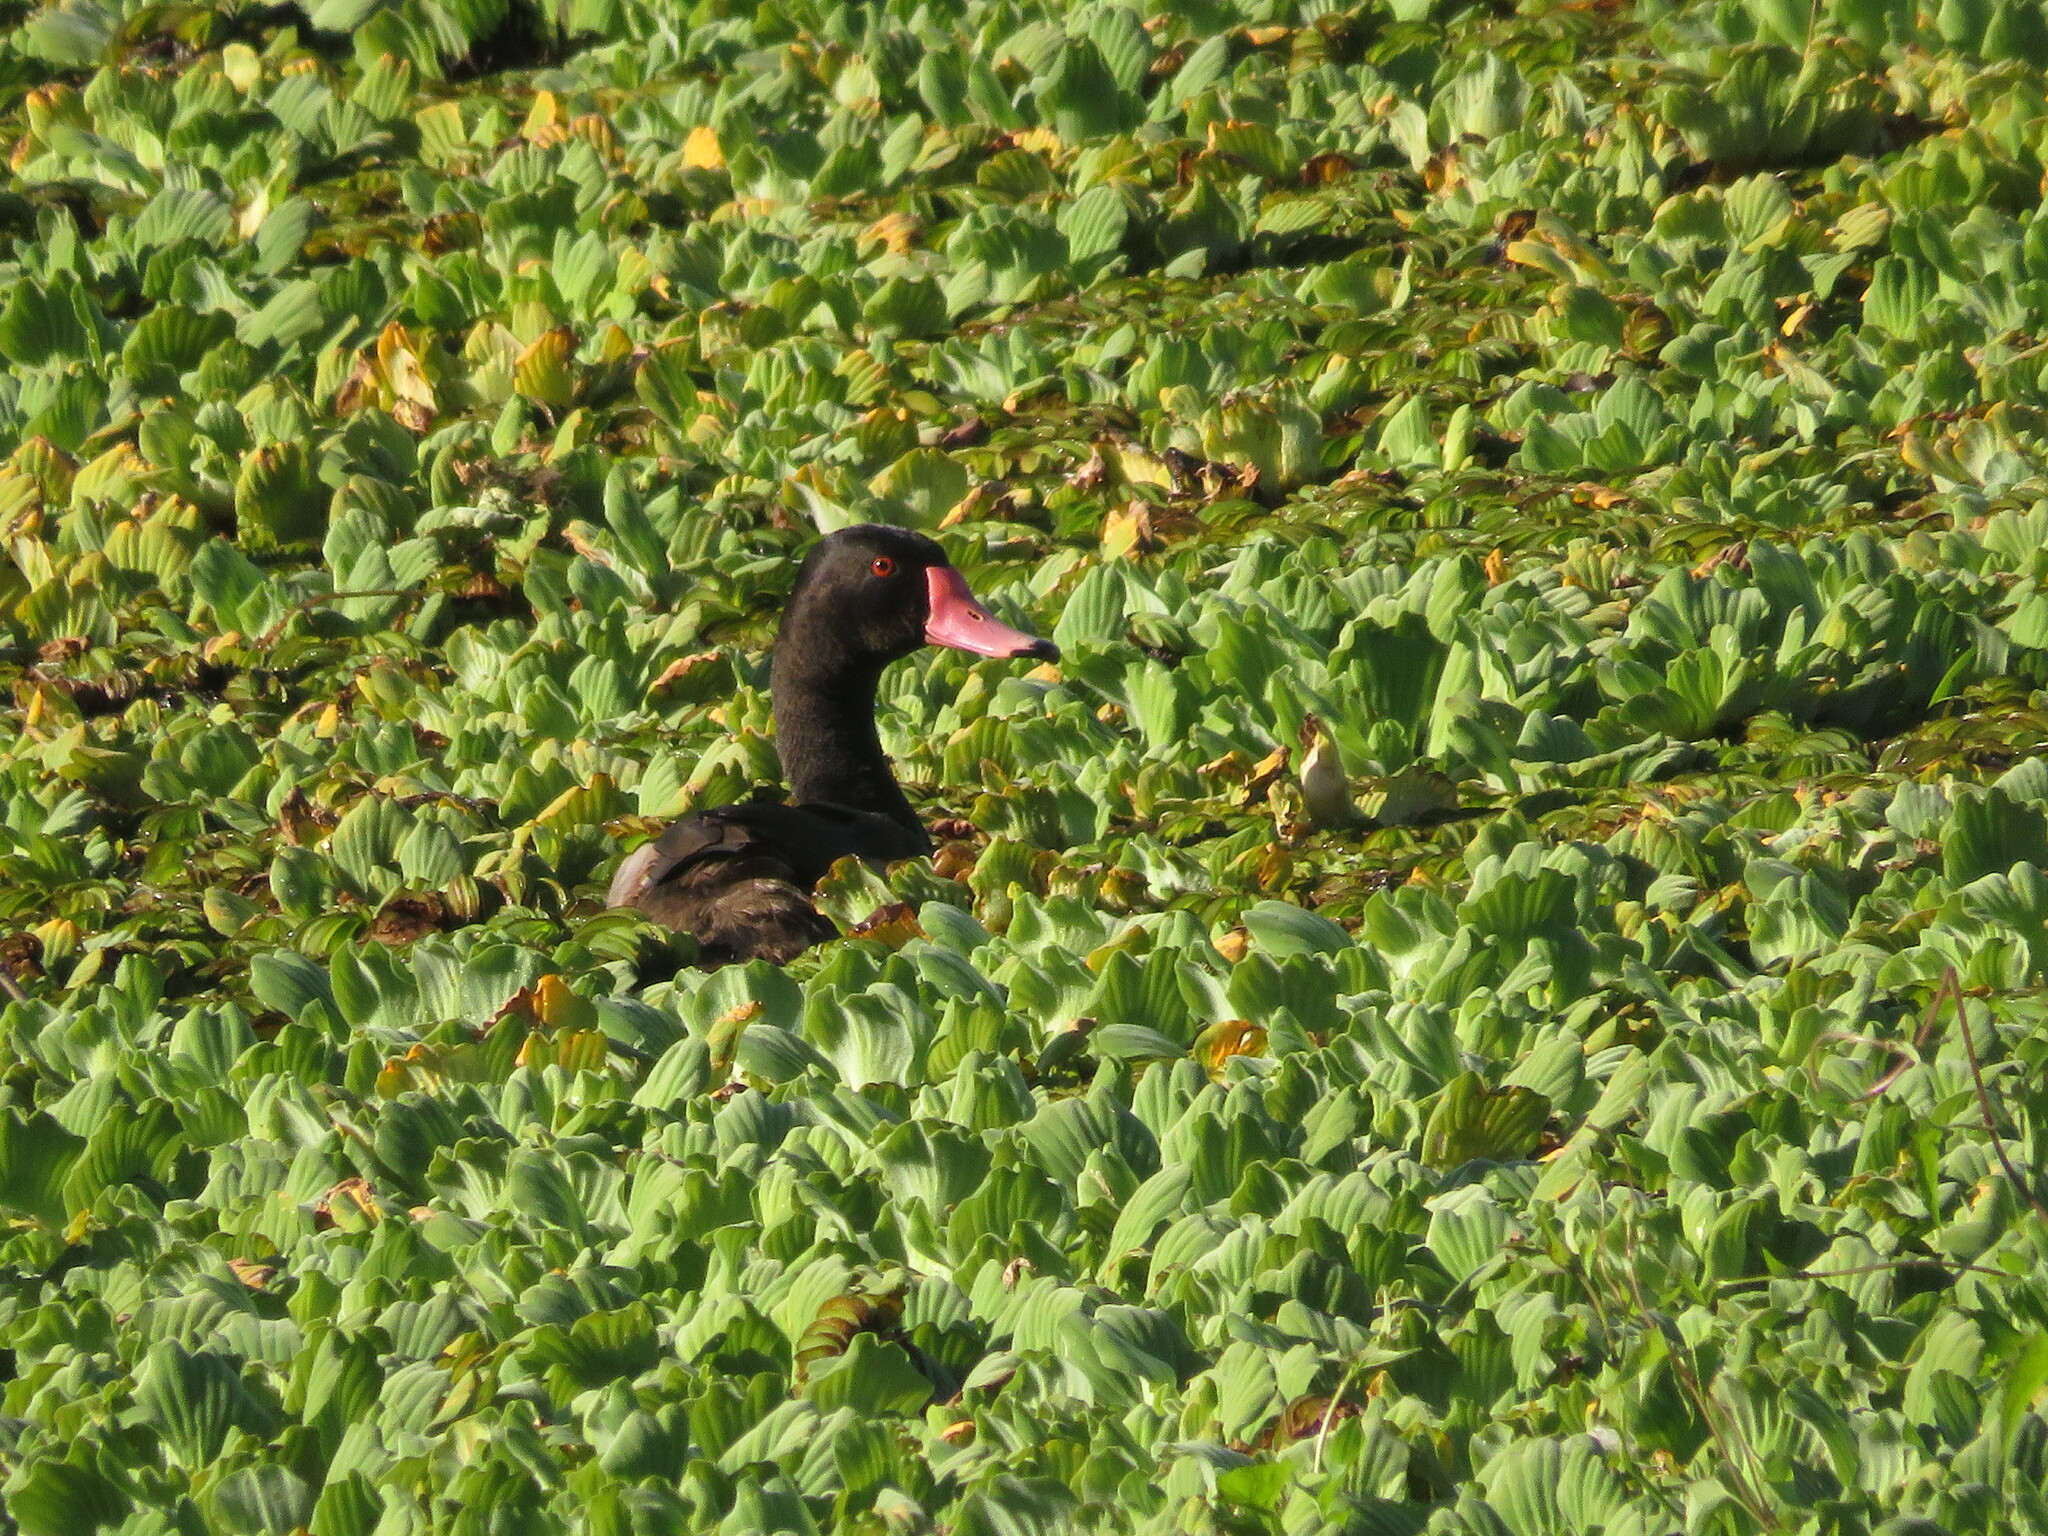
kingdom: Animalia
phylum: Chordata
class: Aves
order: Anseriformes
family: Anatidae
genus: Netta
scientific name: Netta peposaca
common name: Rosy-billed pochard
